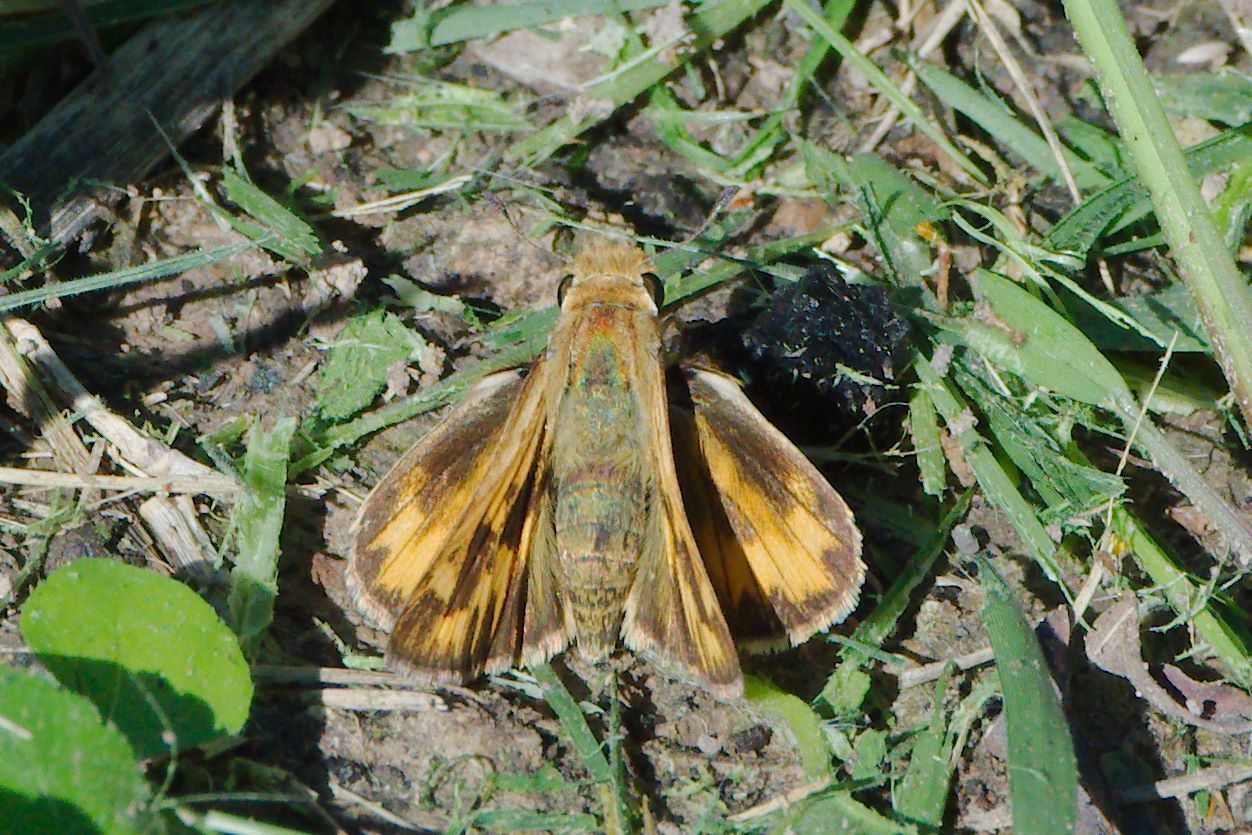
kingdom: Animalia
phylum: Arthropoda
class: Insecta
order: Lepidoptera
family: Hesperiidae
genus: Hylephila
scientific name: Hylephila phyleus
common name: Fiery skipper
